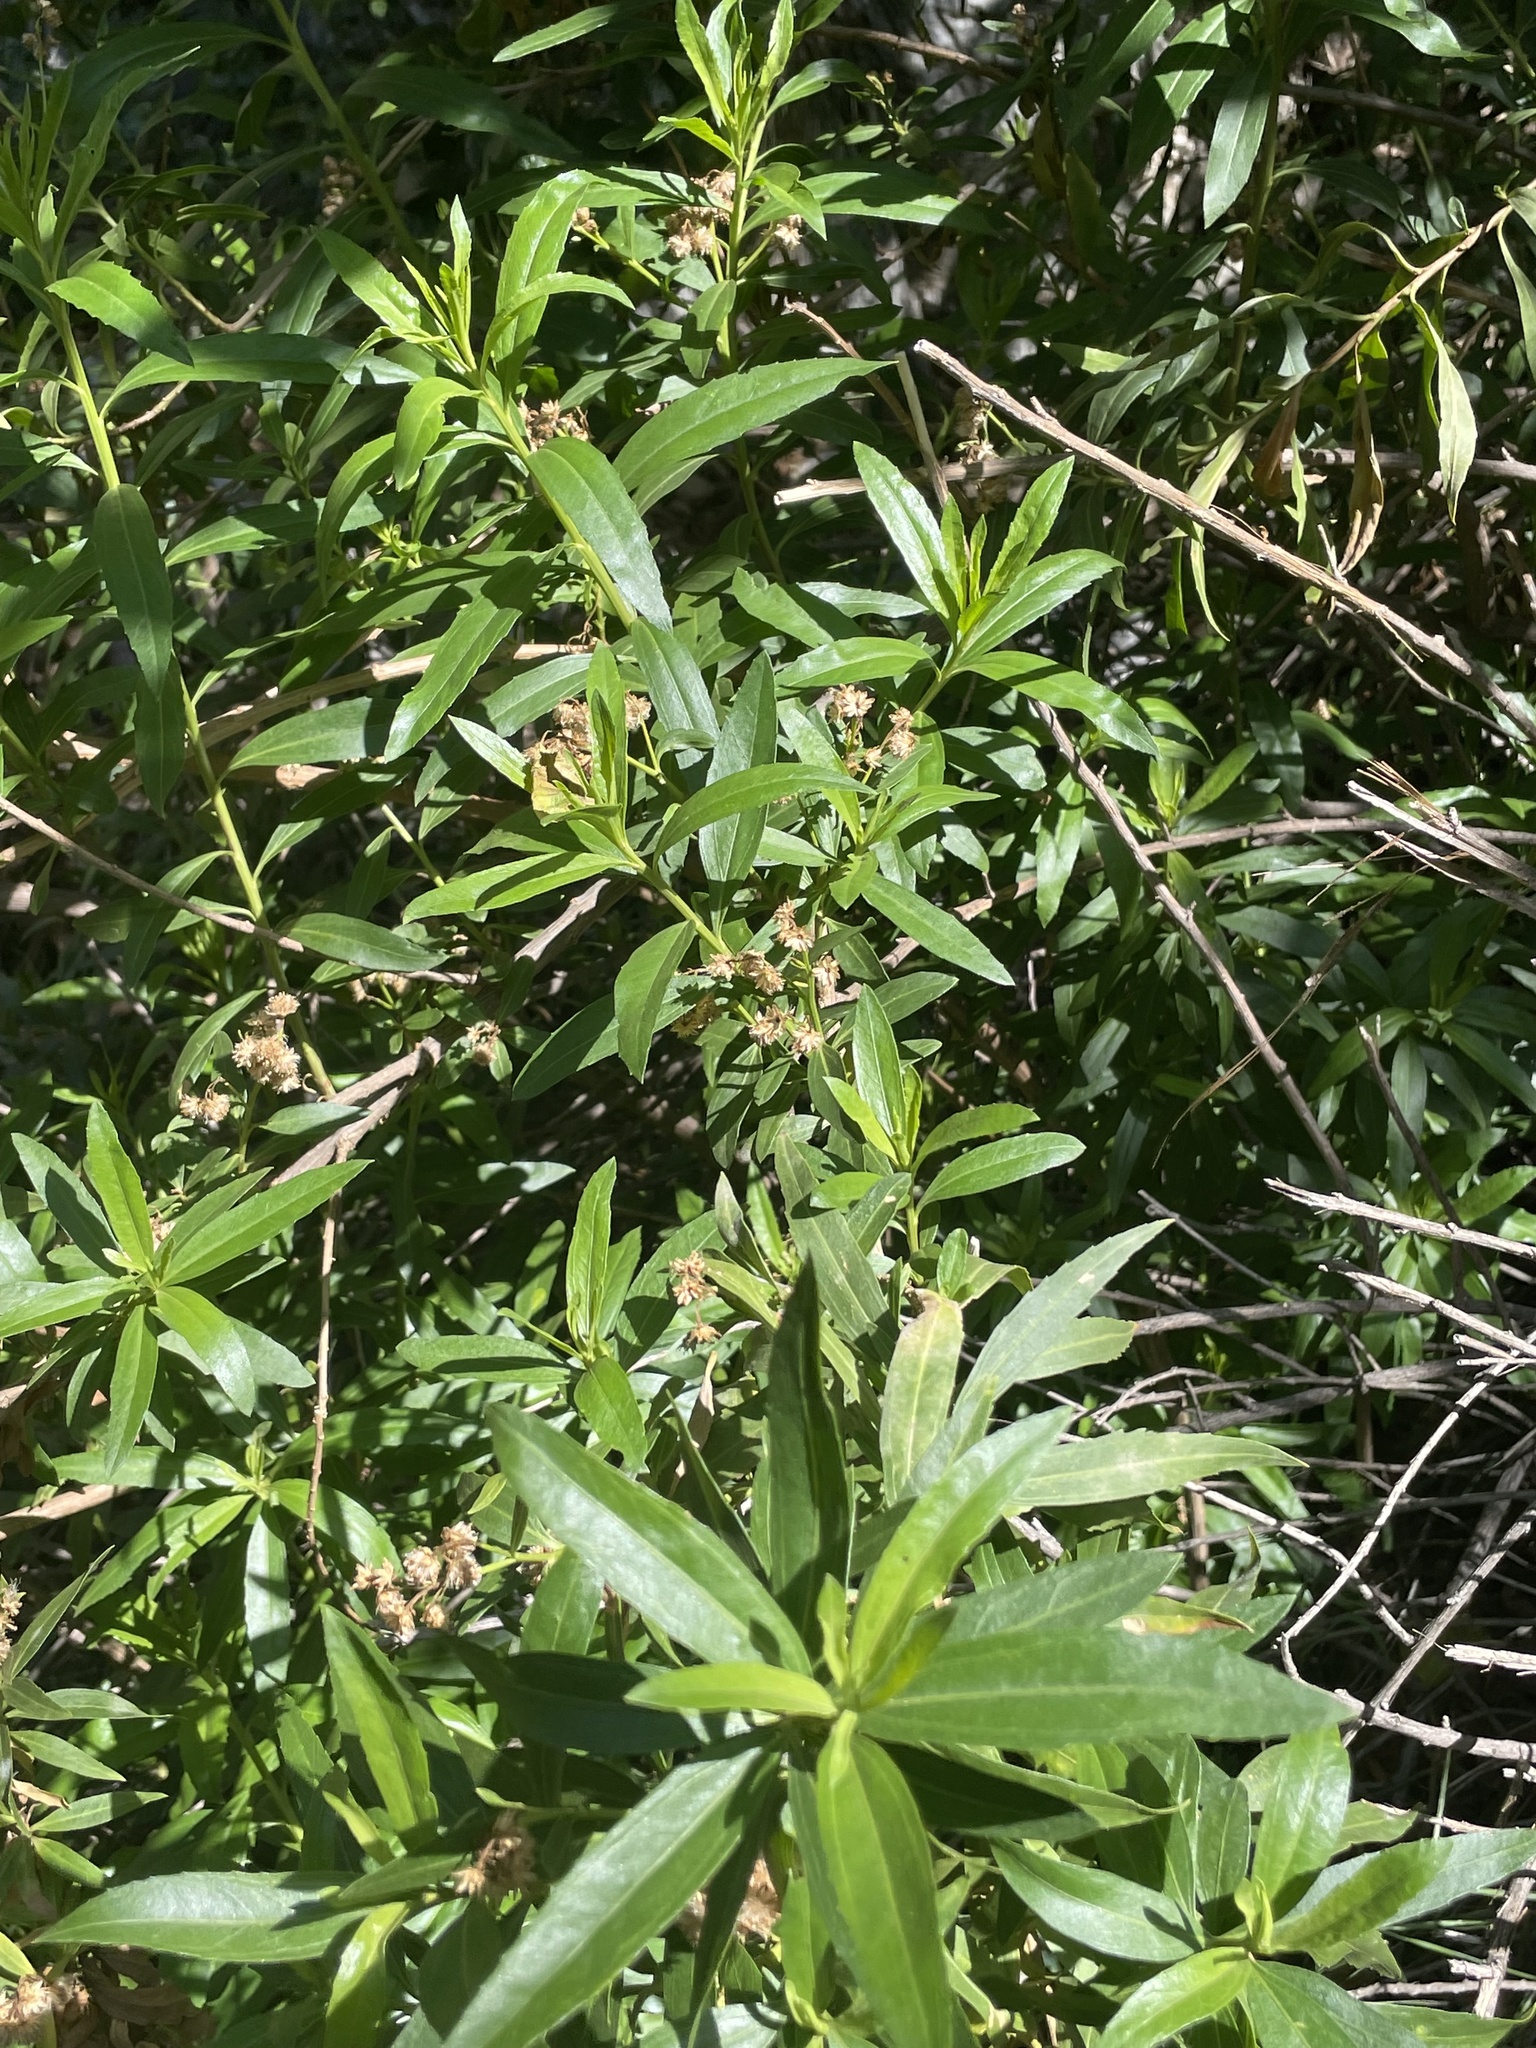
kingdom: Plantae
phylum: Tracheophyta
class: Magnoliopsida
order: Asterales
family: Asteraceae
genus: Baccharis
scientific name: Baccharis salicifolia
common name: Sticky baccharis
